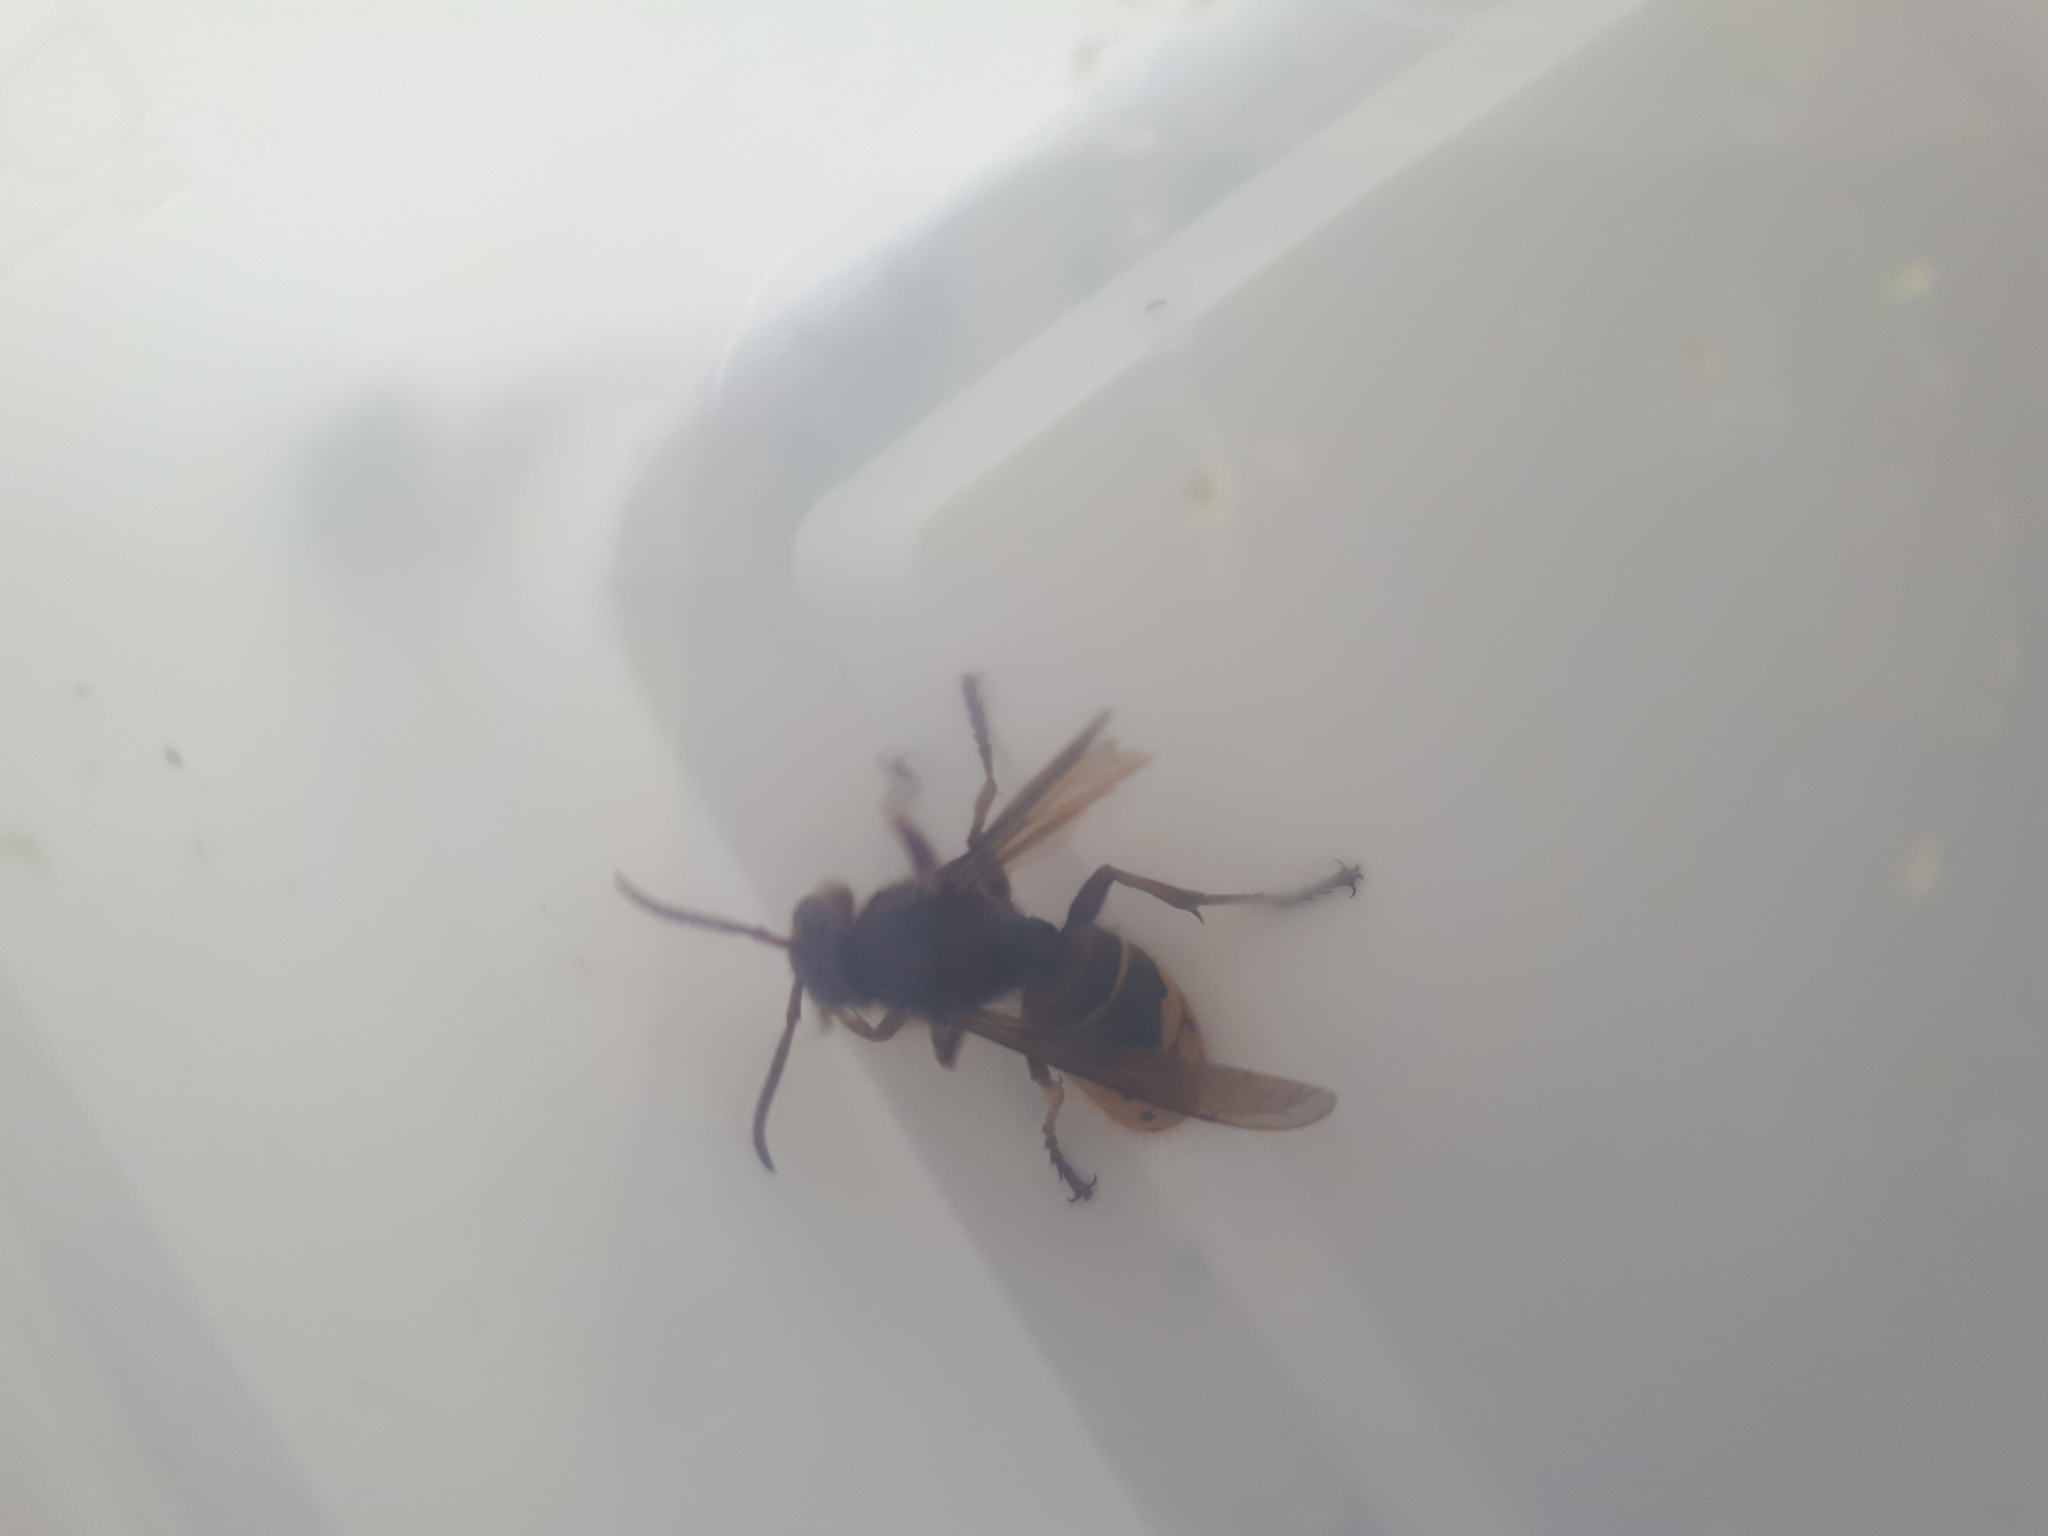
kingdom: Animalia
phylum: Arthropoda
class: Insecta
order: Hymenoptera
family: Vespidae
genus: Vespa
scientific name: Vespa crabro
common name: Hornet
